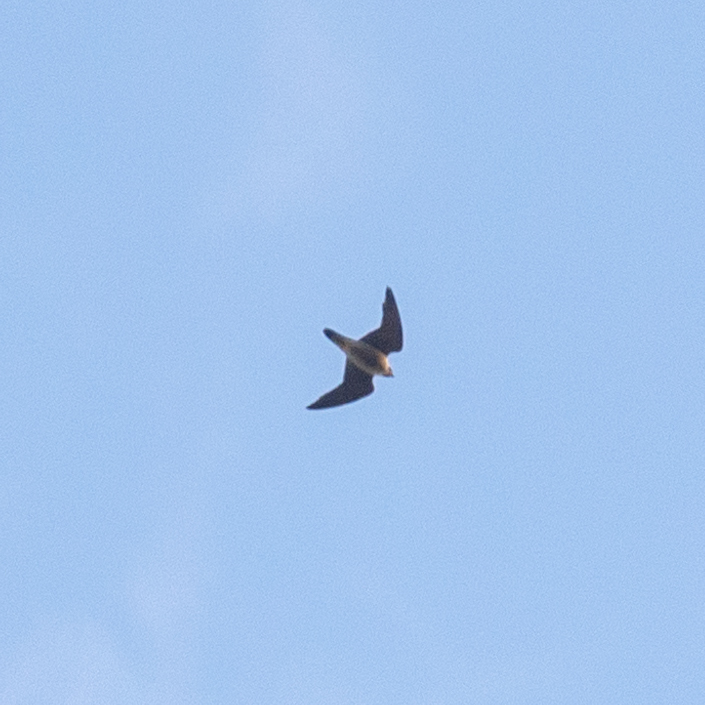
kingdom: Animalia
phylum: Chordata
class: Aves
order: Falconiformes
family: Falconidae
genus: Falco
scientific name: Falco peregrinus
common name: Peregrine falcon
